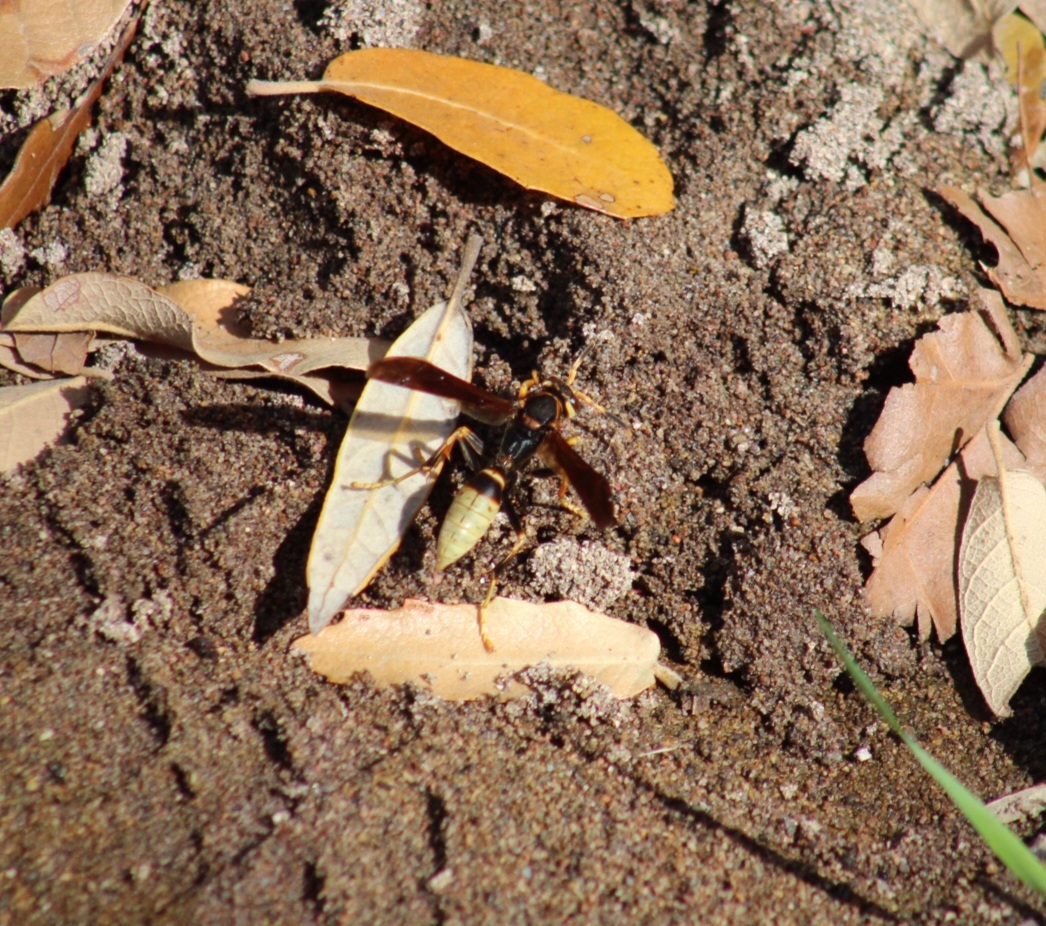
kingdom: Animalia
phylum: Arthropoda
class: Insecta
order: Hymenoptera
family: Eumenidae
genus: Polistes
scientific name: Polistes comanchus
